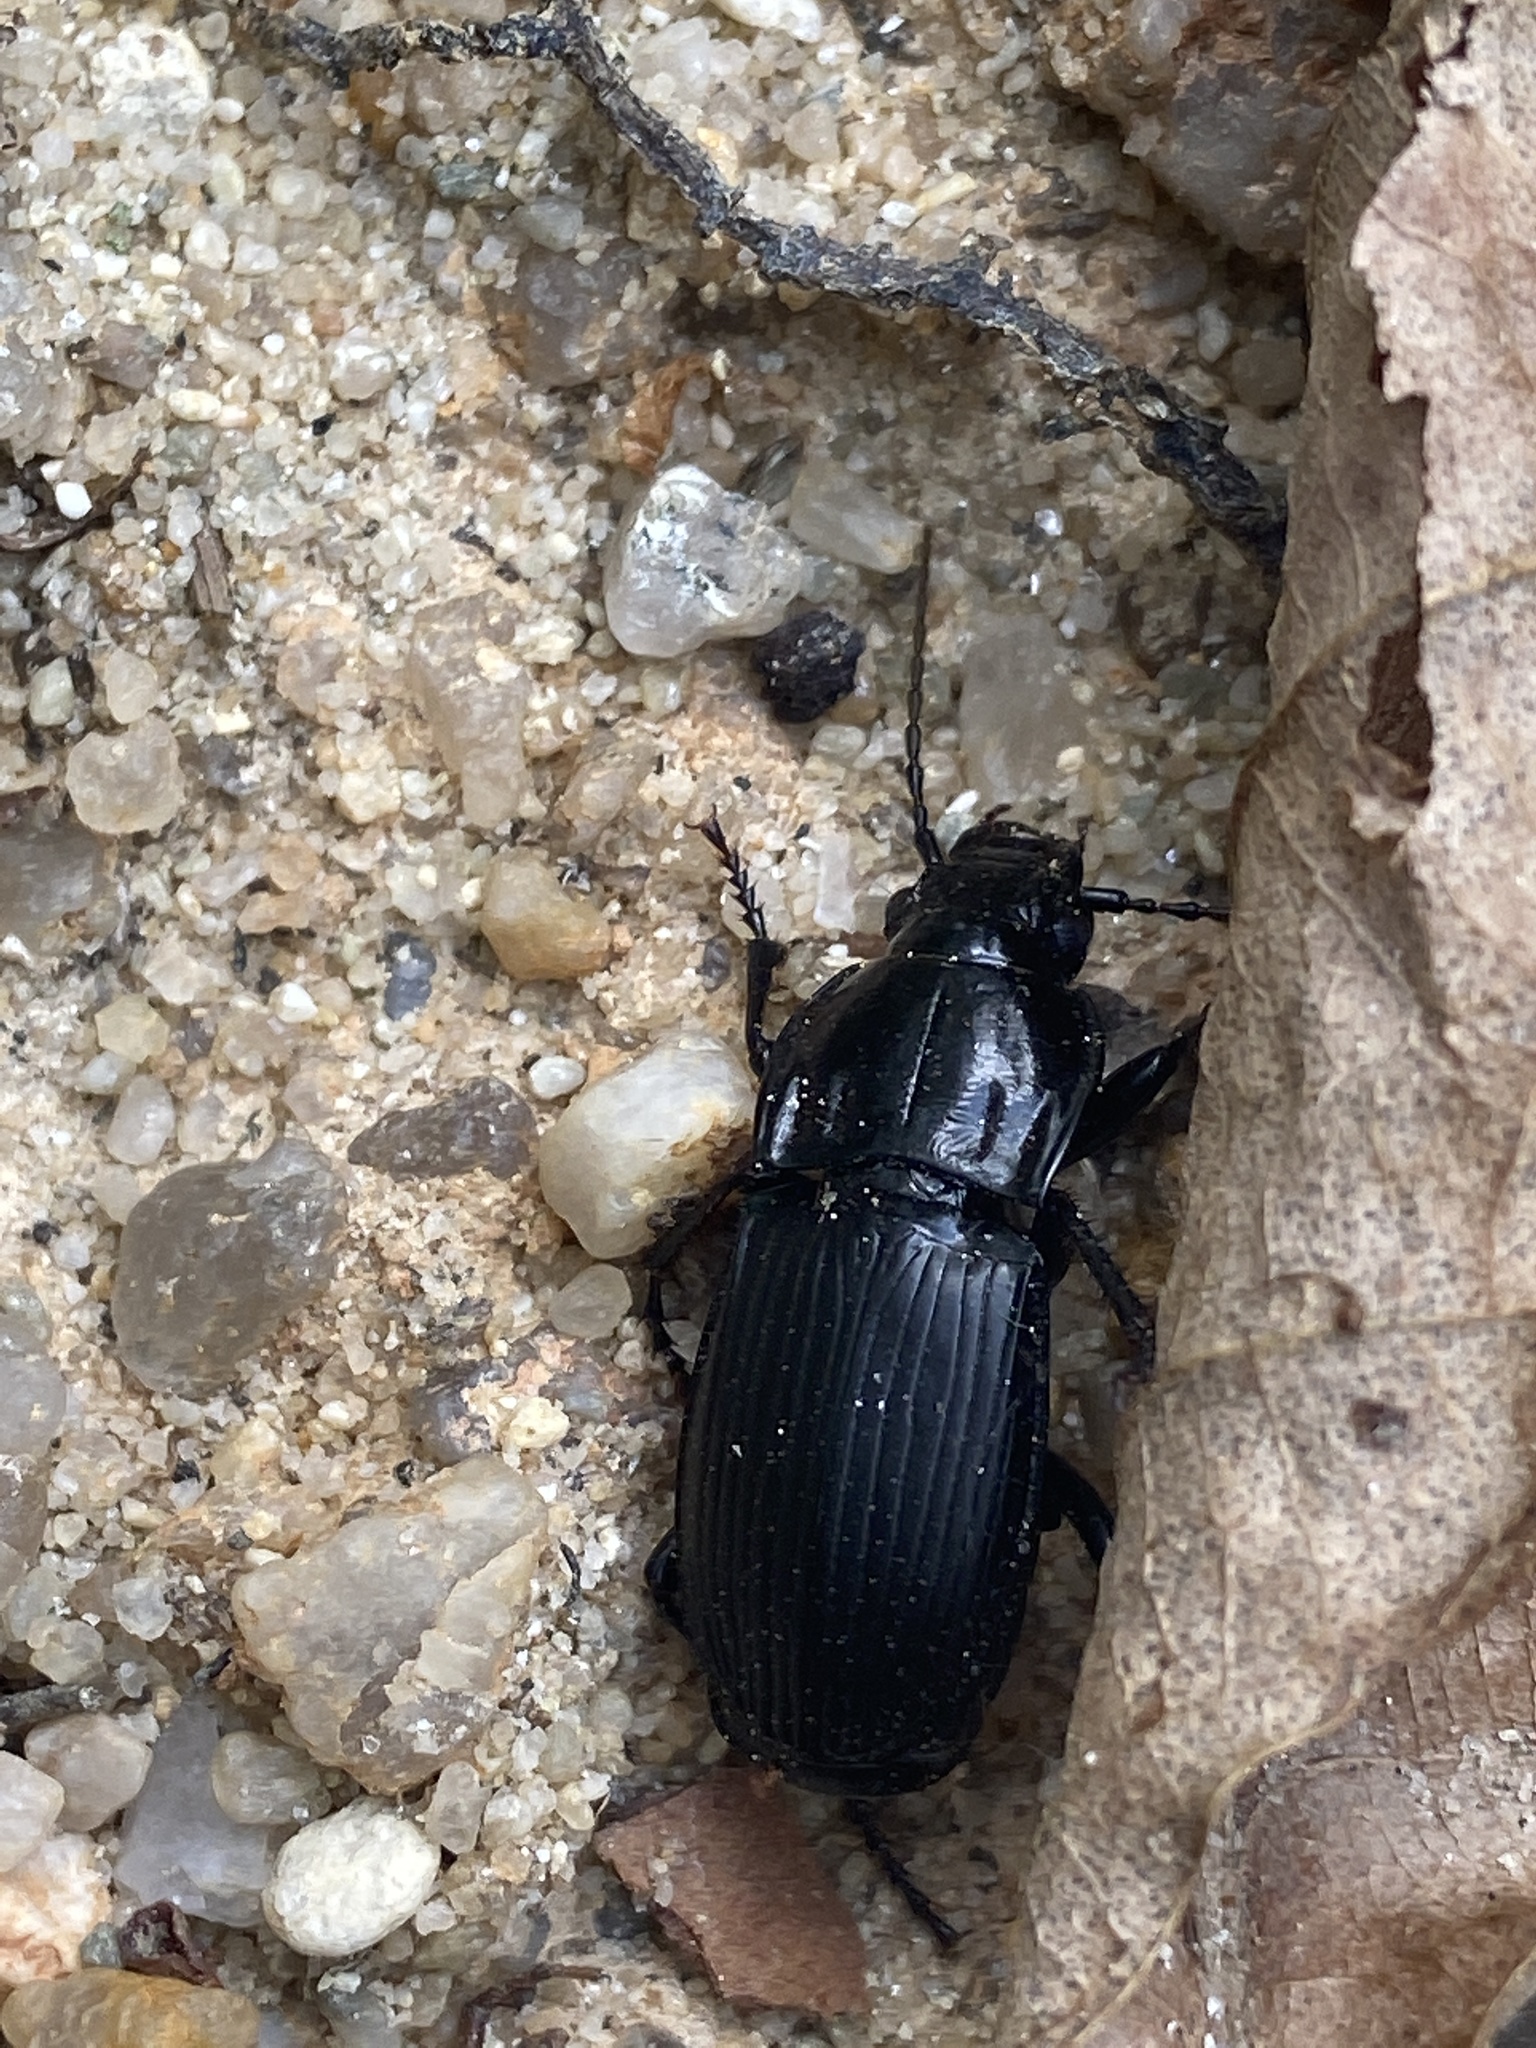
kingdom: Animalia
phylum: Arthropoda
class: Insecta
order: Coleoptera
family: Carabidae
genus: Abax
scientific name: Abax parallelepipedus
